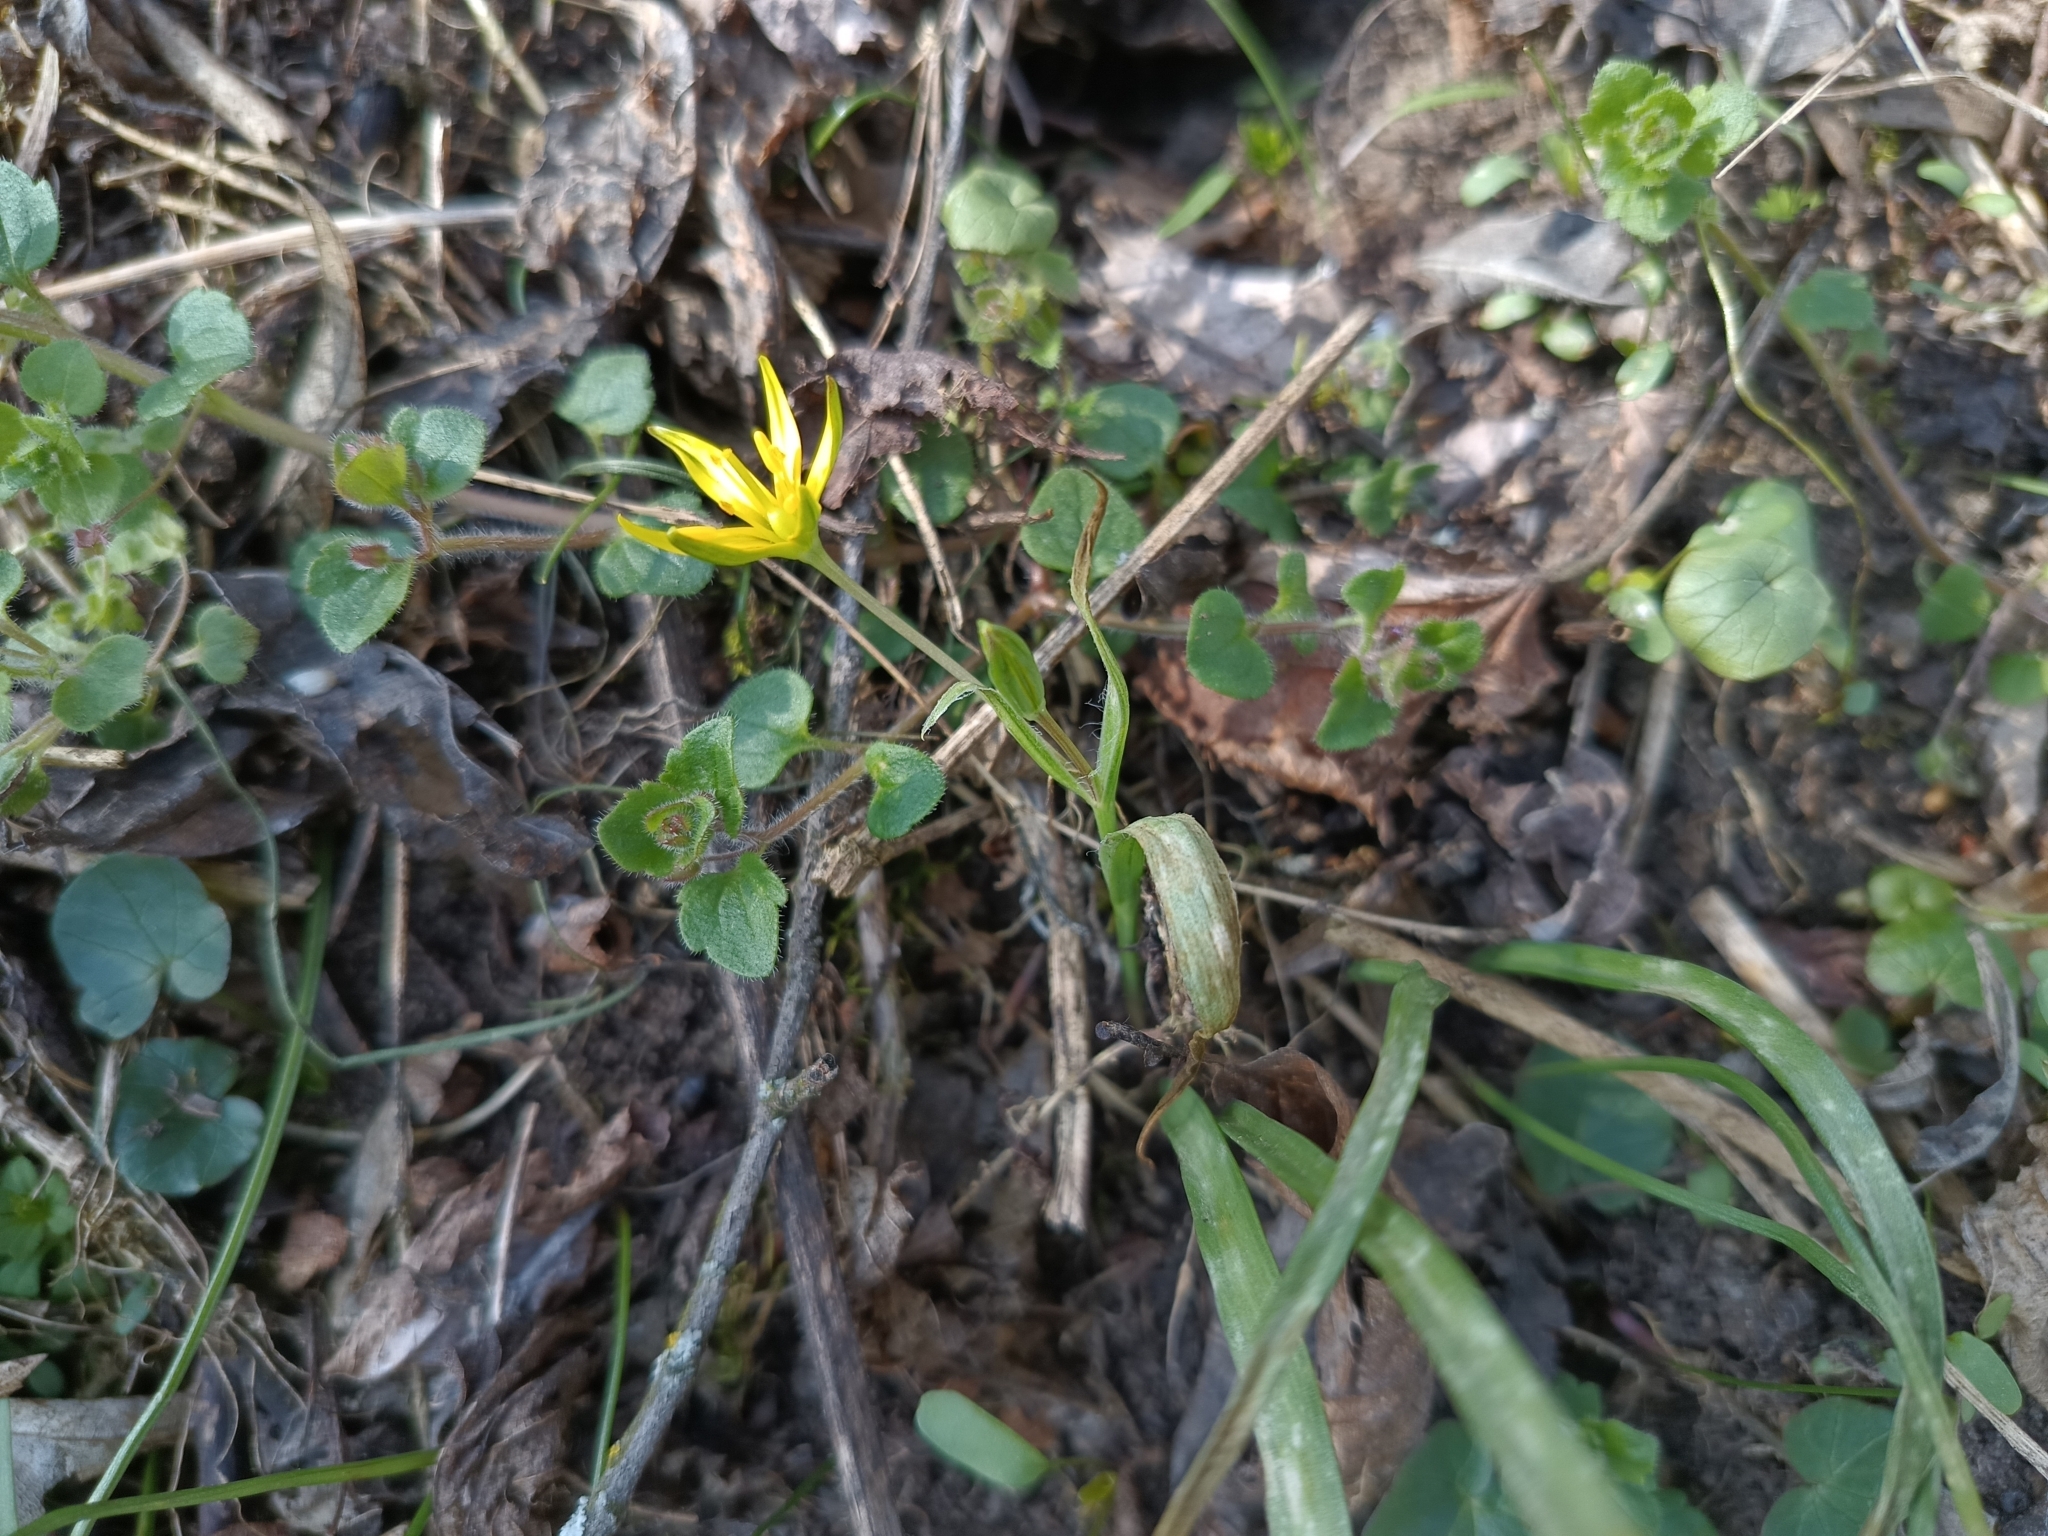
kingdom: Plantae
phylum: Tracheophyta
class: Liliopsida
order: Liliales
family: Liliaceae
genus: Gagea
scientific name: Gagea pratensis
